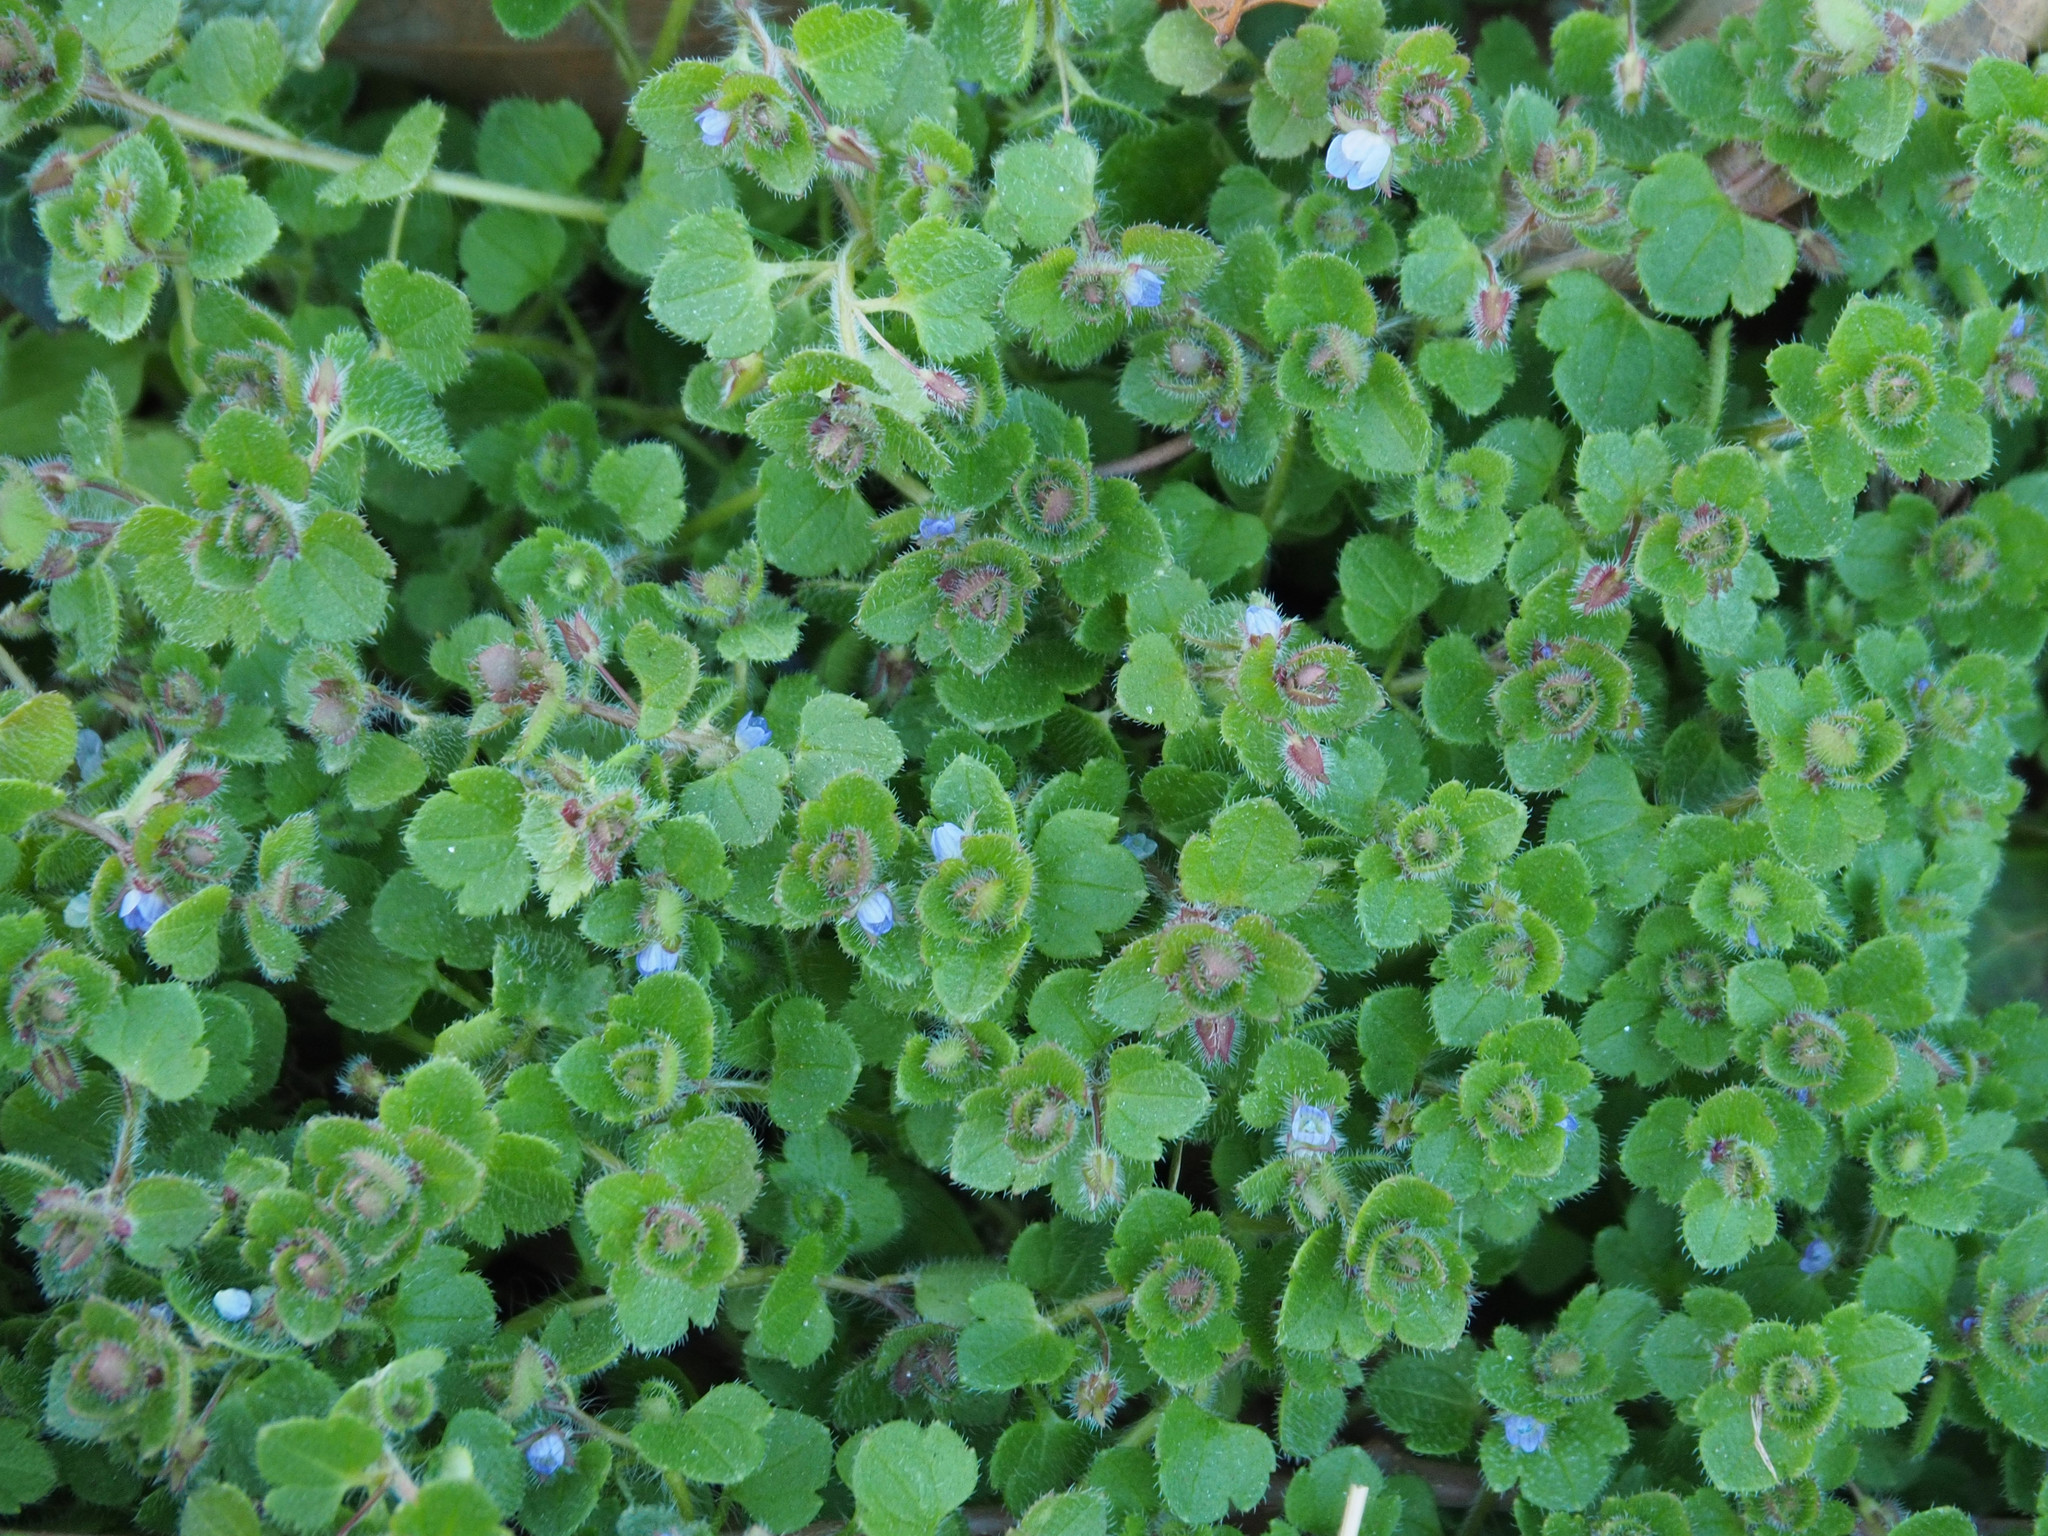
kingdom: Plantae
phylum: Tracheophyta
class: Magnoliopsida
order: Lamiales
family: Plantaginaceae
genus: Veronica
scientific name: Veronica hederifolia
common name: Ivy-leaved speedwell
